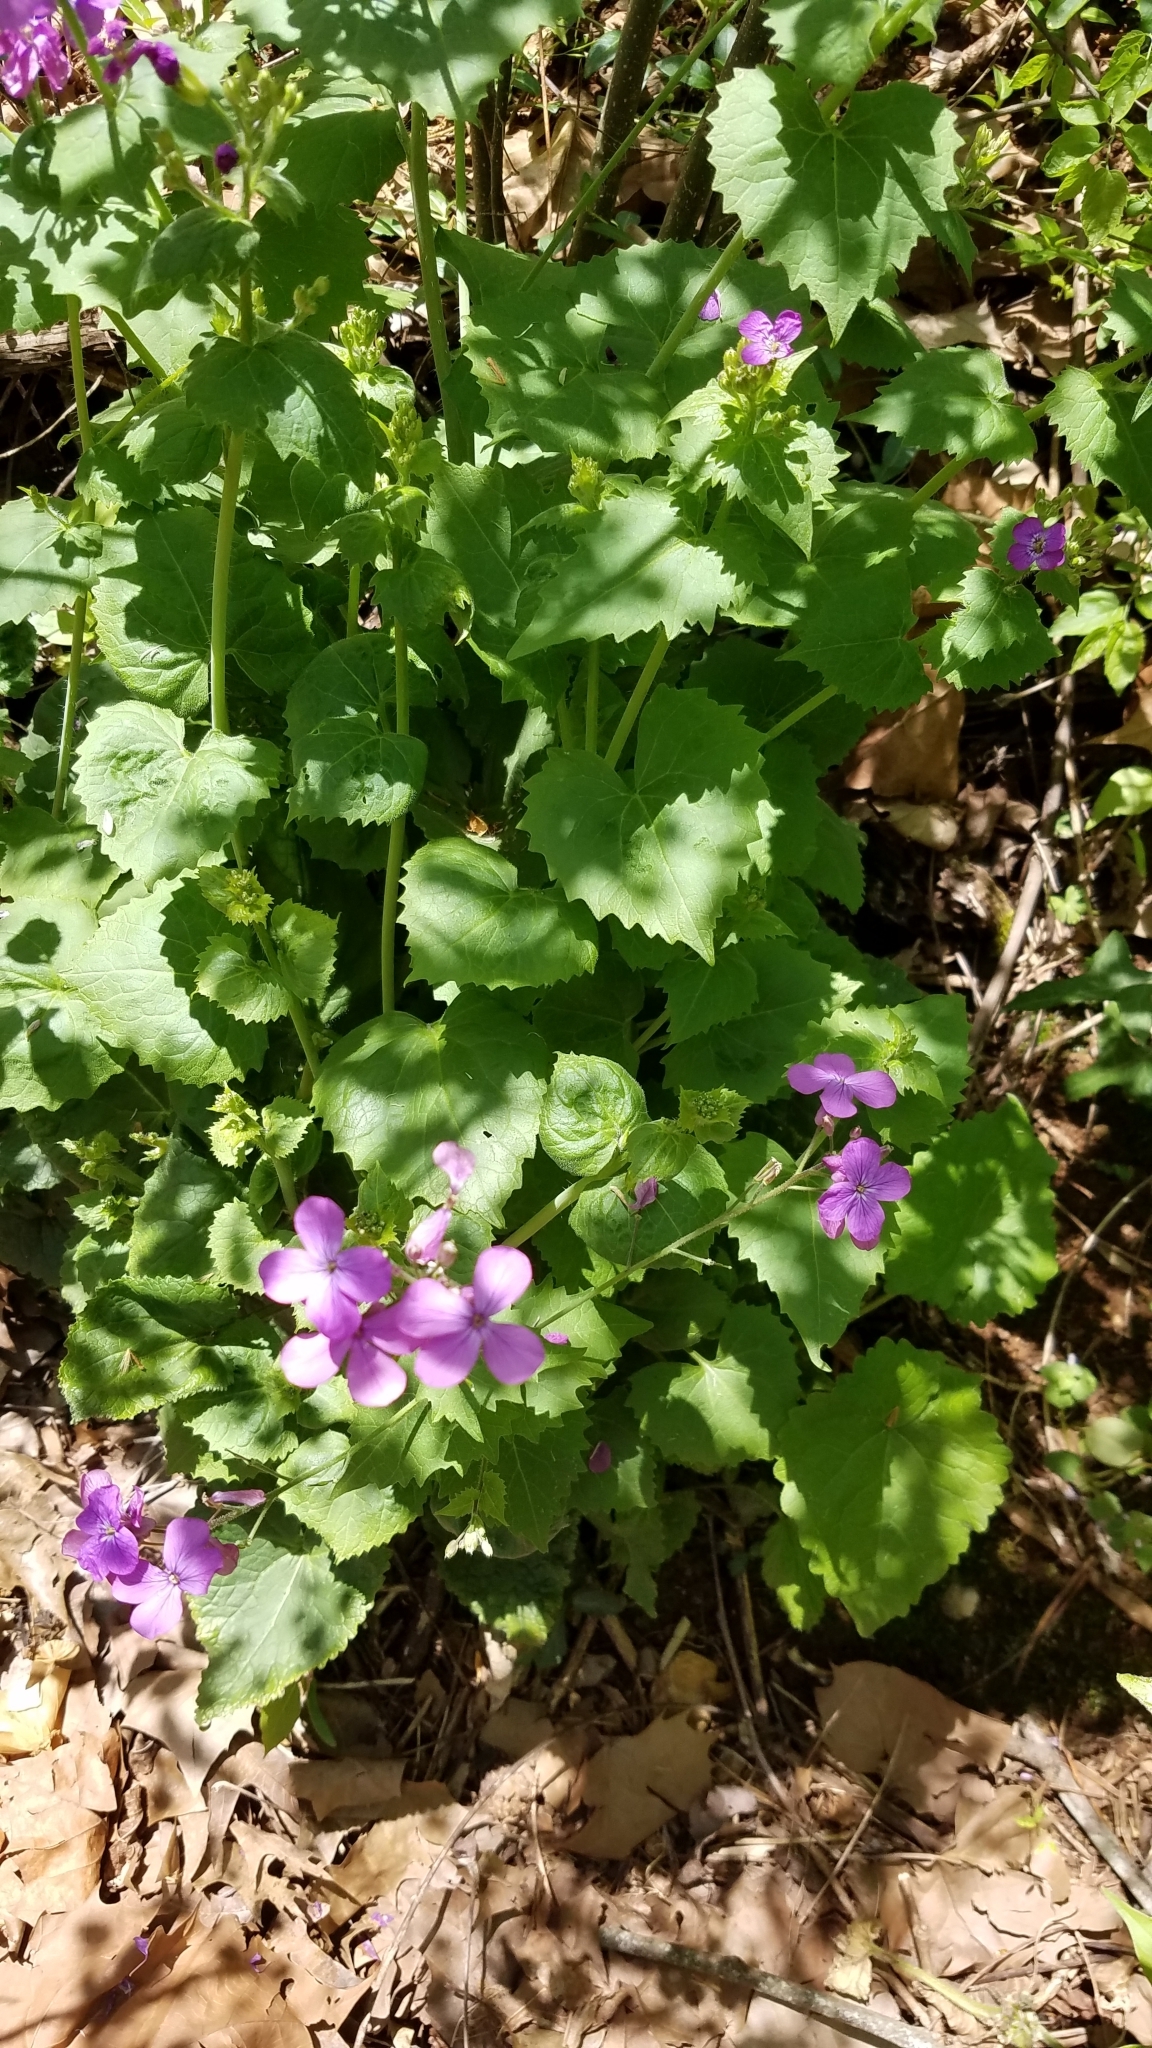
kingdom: Plantae
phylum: Tracheophyta
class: Magnoliopsida
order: Brassicales
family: Brassicaceae
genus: Lunaria
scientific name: Lunaria annua
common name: Honesty
